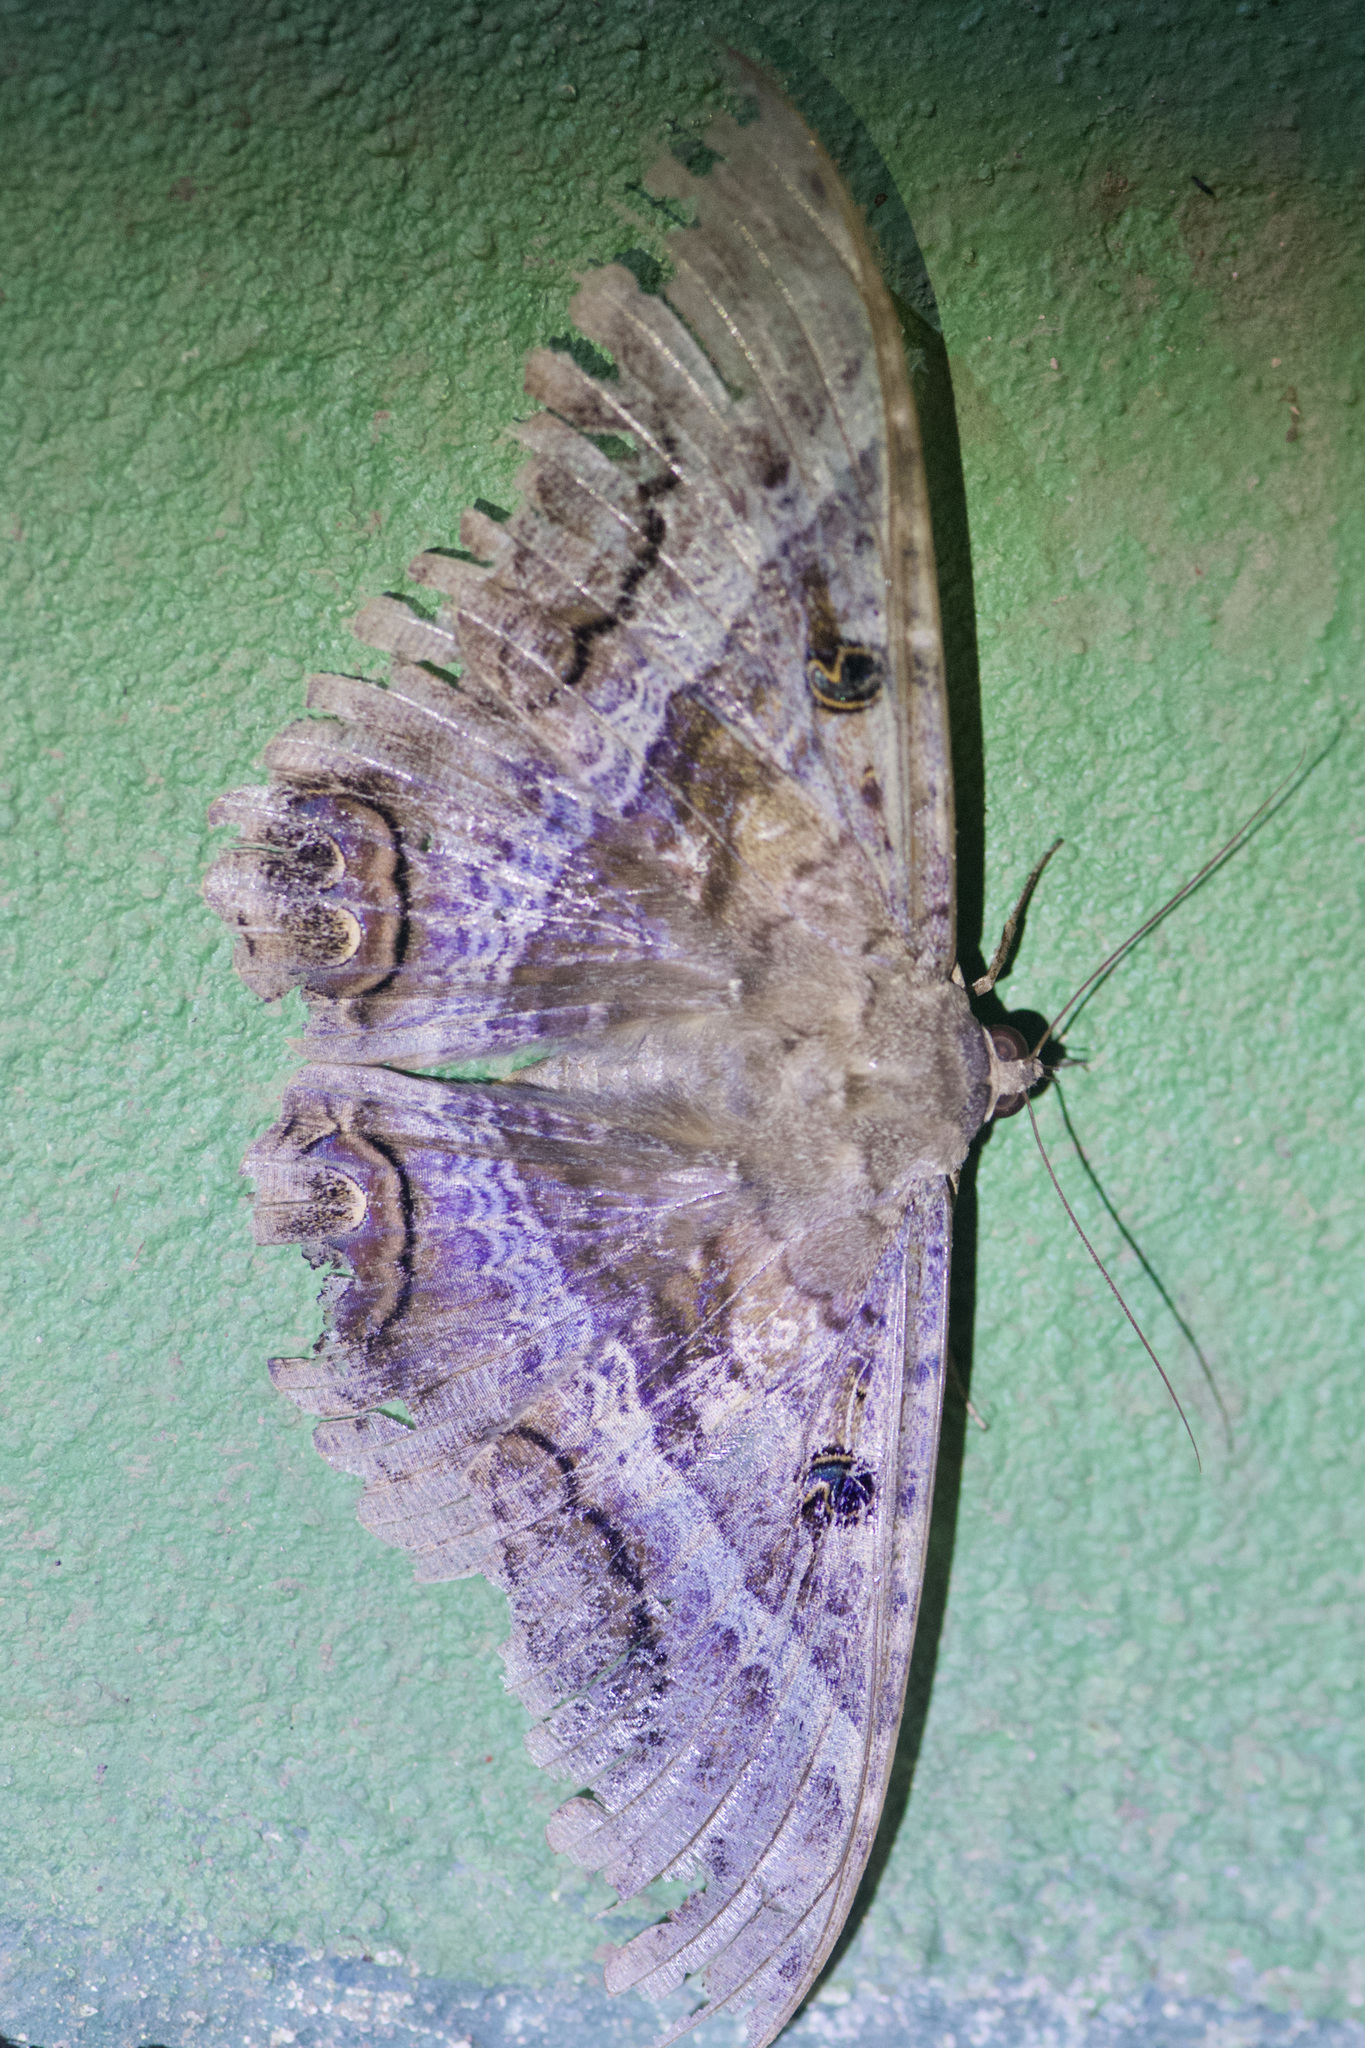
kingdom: Animalia
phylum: Arthropoda
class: Insecta
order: Lepidoptera
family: Erebidae
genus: Ascalapha
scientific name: Ascalapha odorata
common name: Black witch
